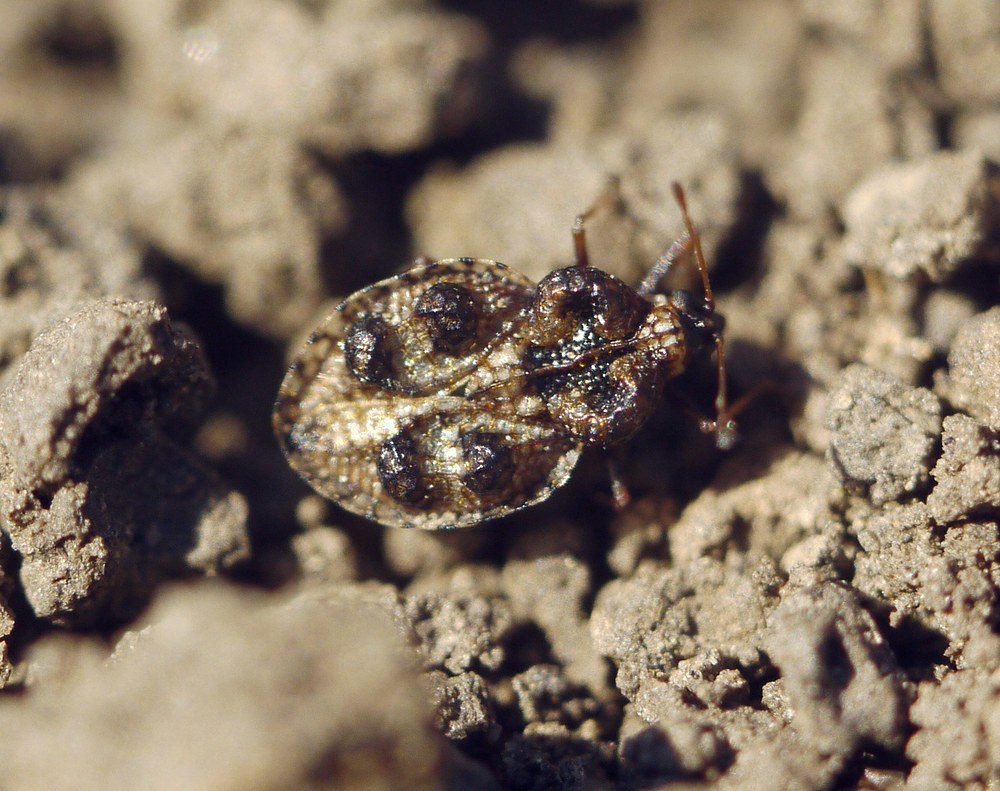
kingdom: Animalia
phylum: Arthropoda
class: Insecta
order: Hemiptera
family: Tingidae
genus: Dictyla
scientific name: Dictyla rotundata
